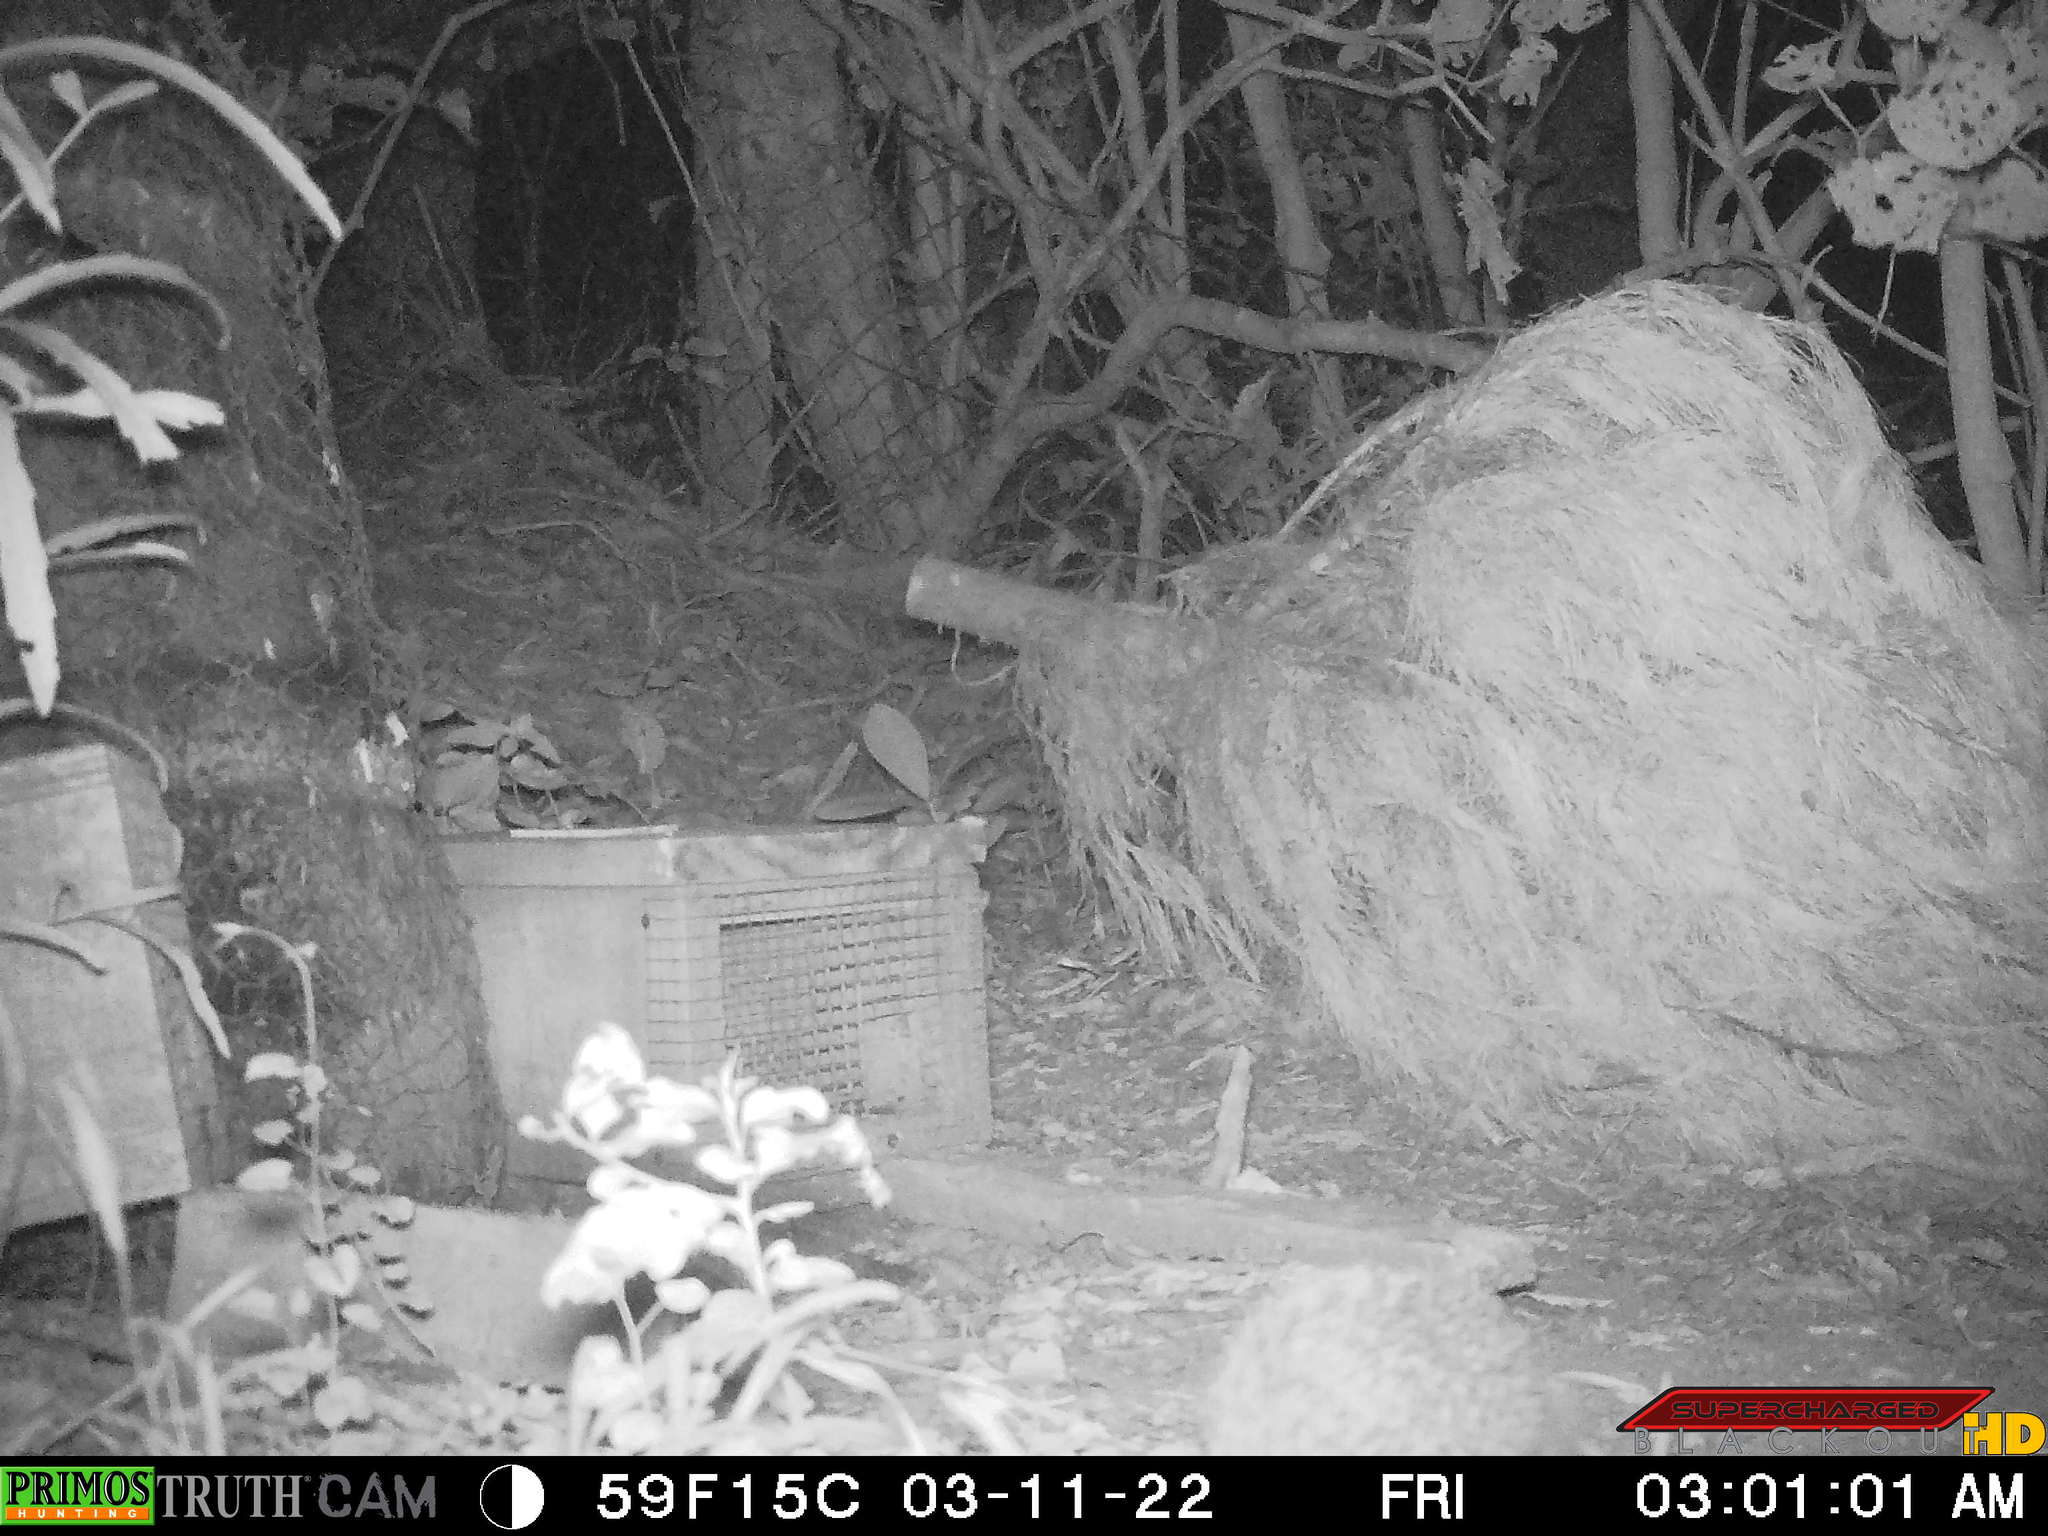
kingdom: Animalia
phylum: Chordata
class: Mammalia
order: Erinaceomorpha
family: Erinaceidae
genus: Erinaceus
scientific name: Erinaceus europaeus
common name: West european hedgehog
